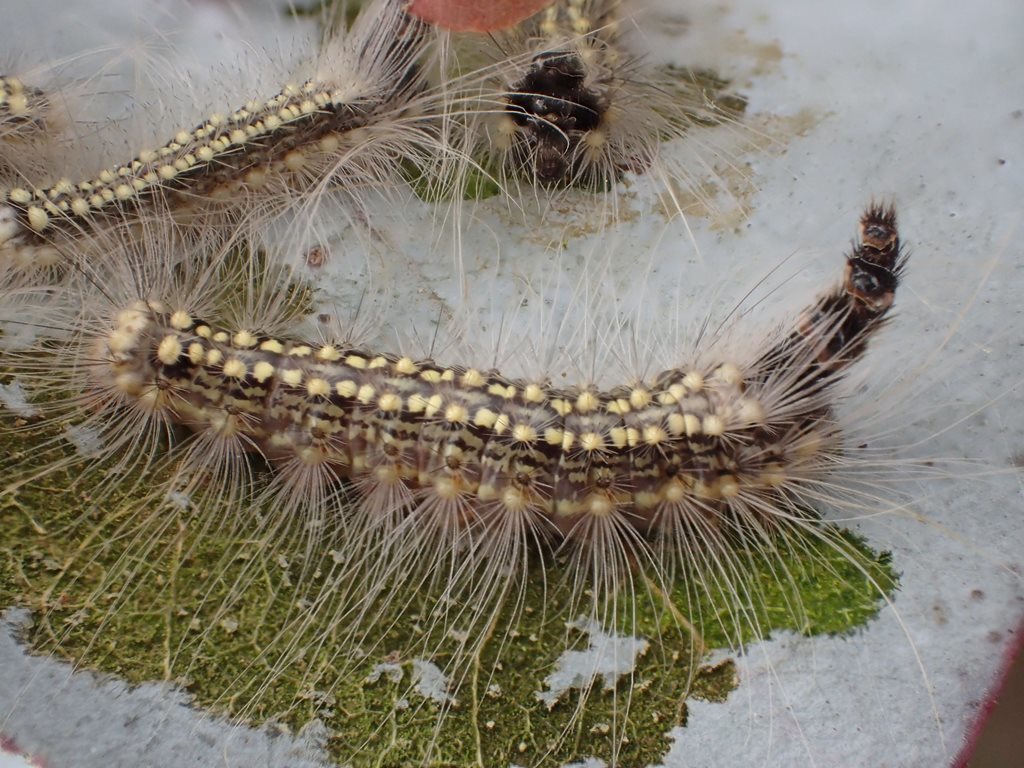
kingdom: Animalia
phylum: Arthropoda
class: Insecta
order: Lepidoptera
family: Nolidae
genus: Uraba
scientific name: Uraba lugens
